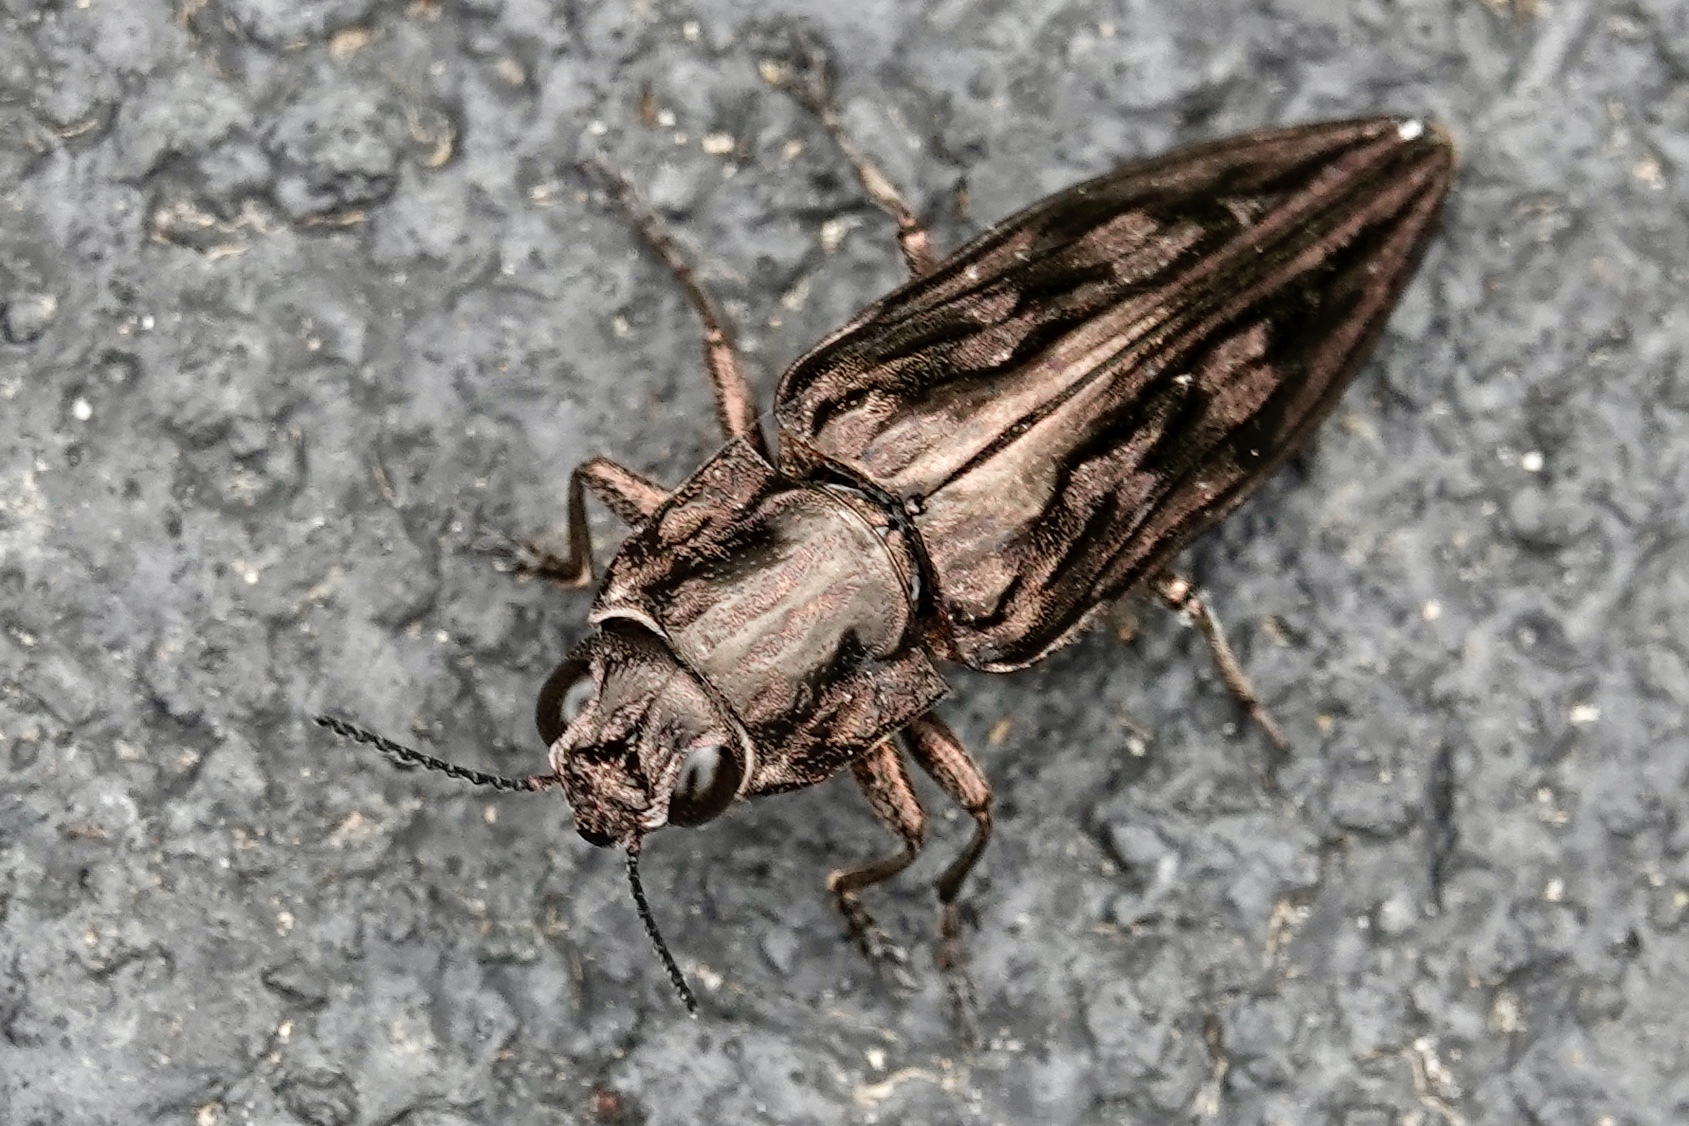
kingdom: Animalia
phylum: Arthropoda
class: Insecta
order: Coleoptera
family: Buprestidae
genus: Chalcophora
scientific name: Chalcophora virginiensis
